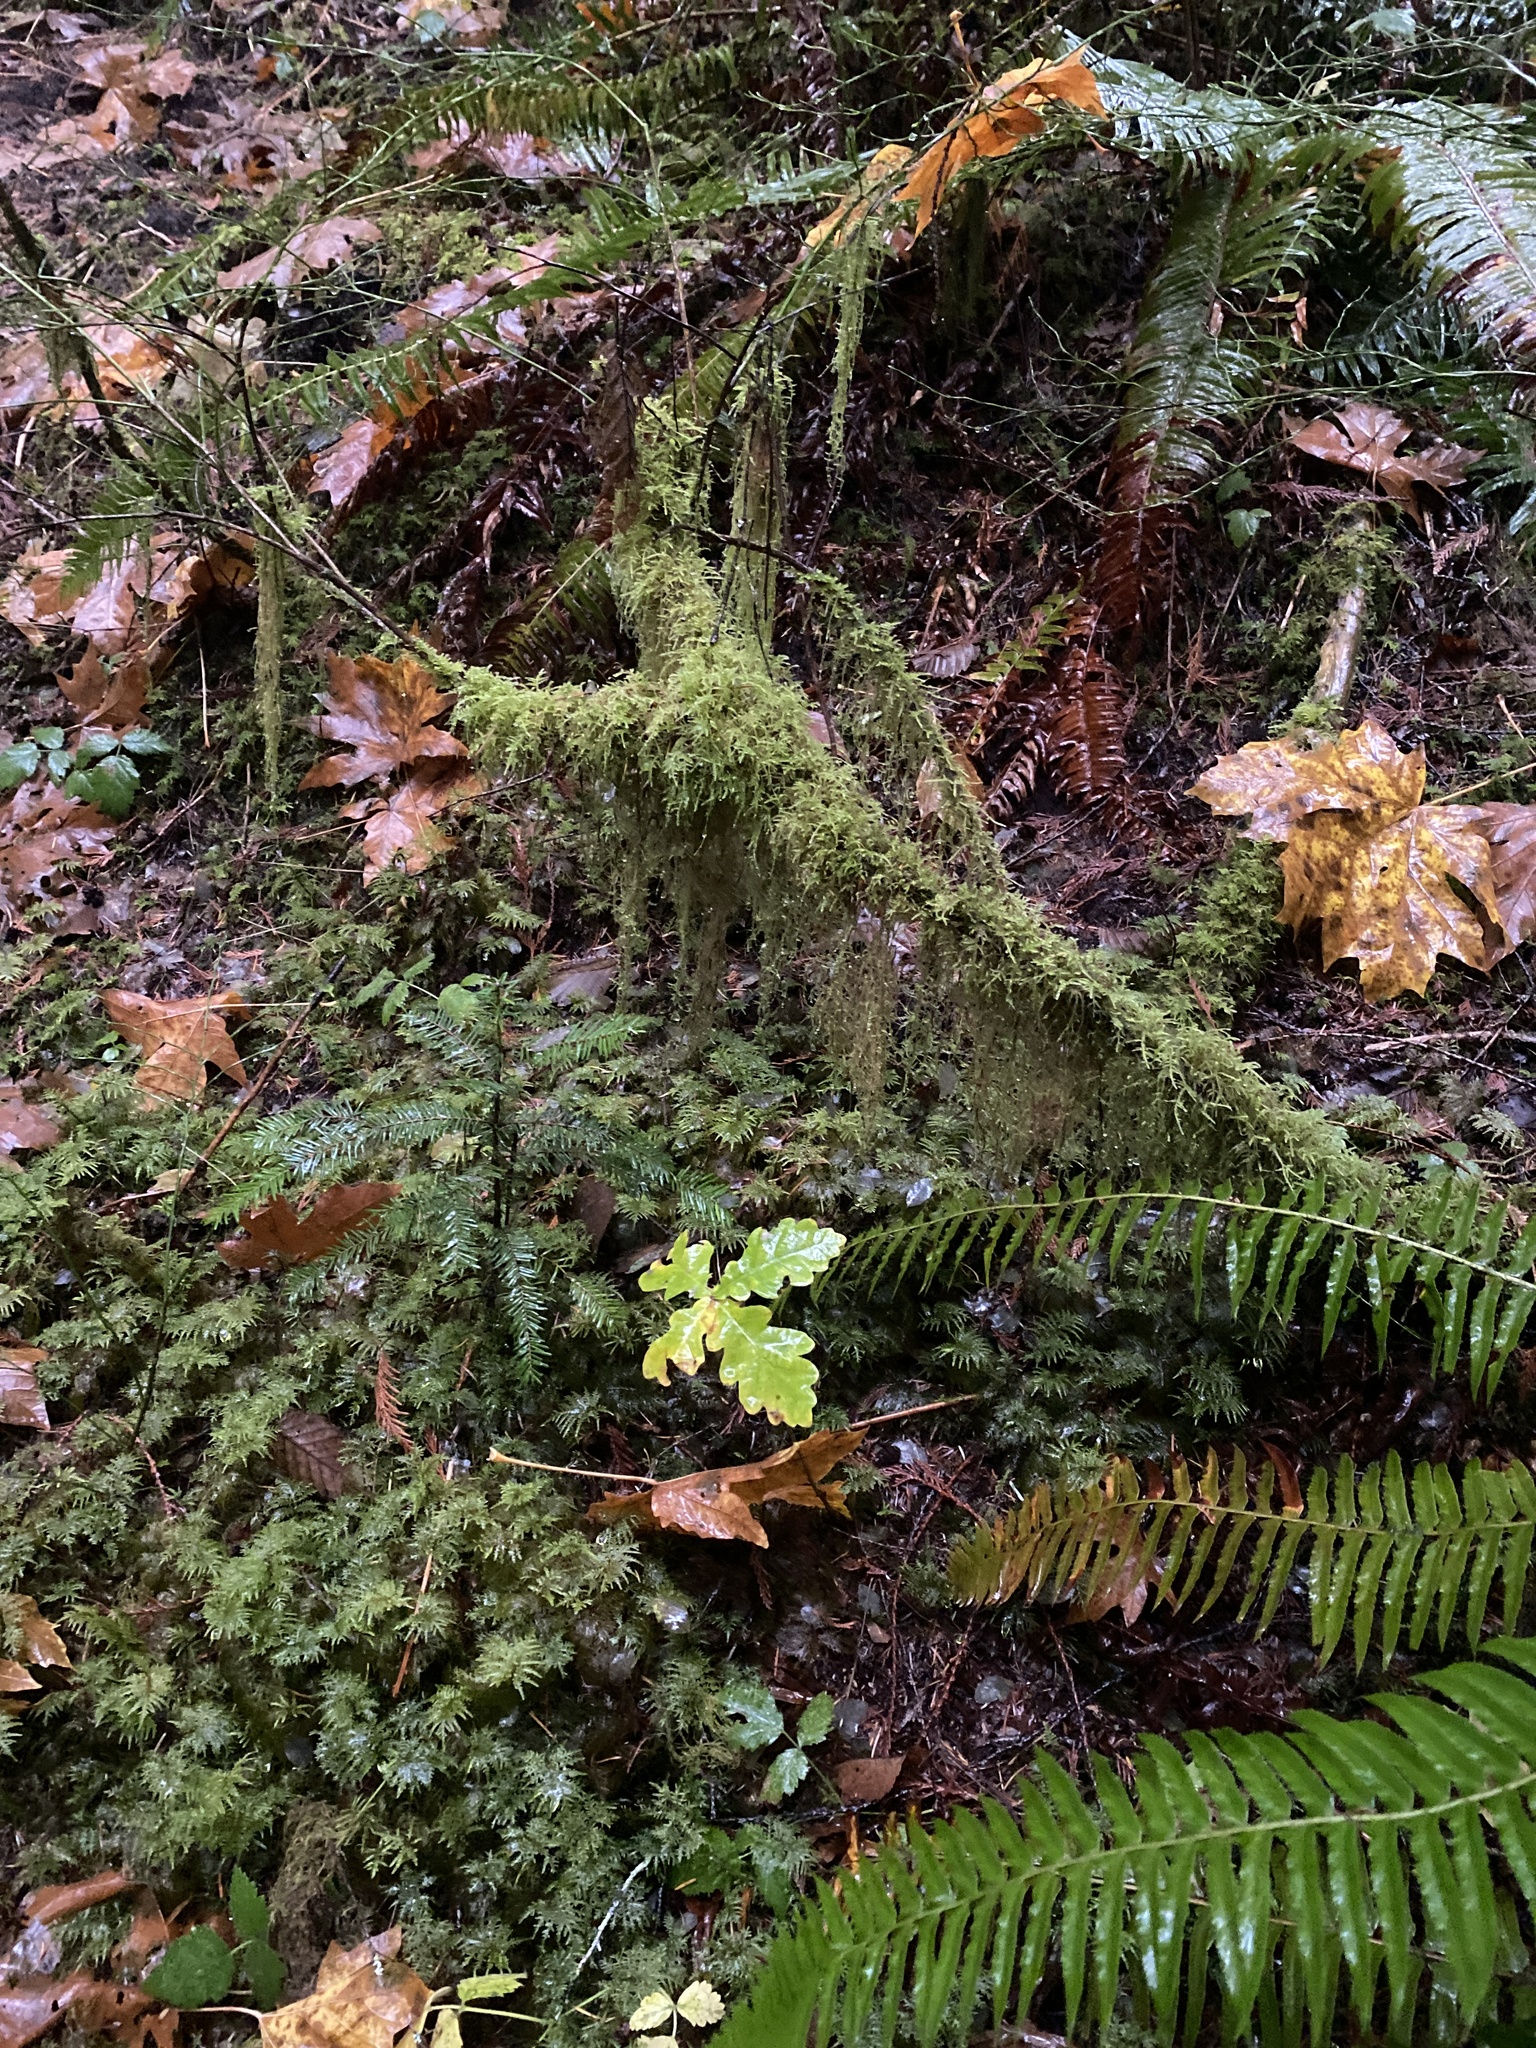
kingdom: Plantae
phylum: Tracheophyta
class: Magnoliopsida
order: Fagales
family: Fagaceae
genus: Quercus
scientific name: Quercus robur
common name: Pedunculate oak
